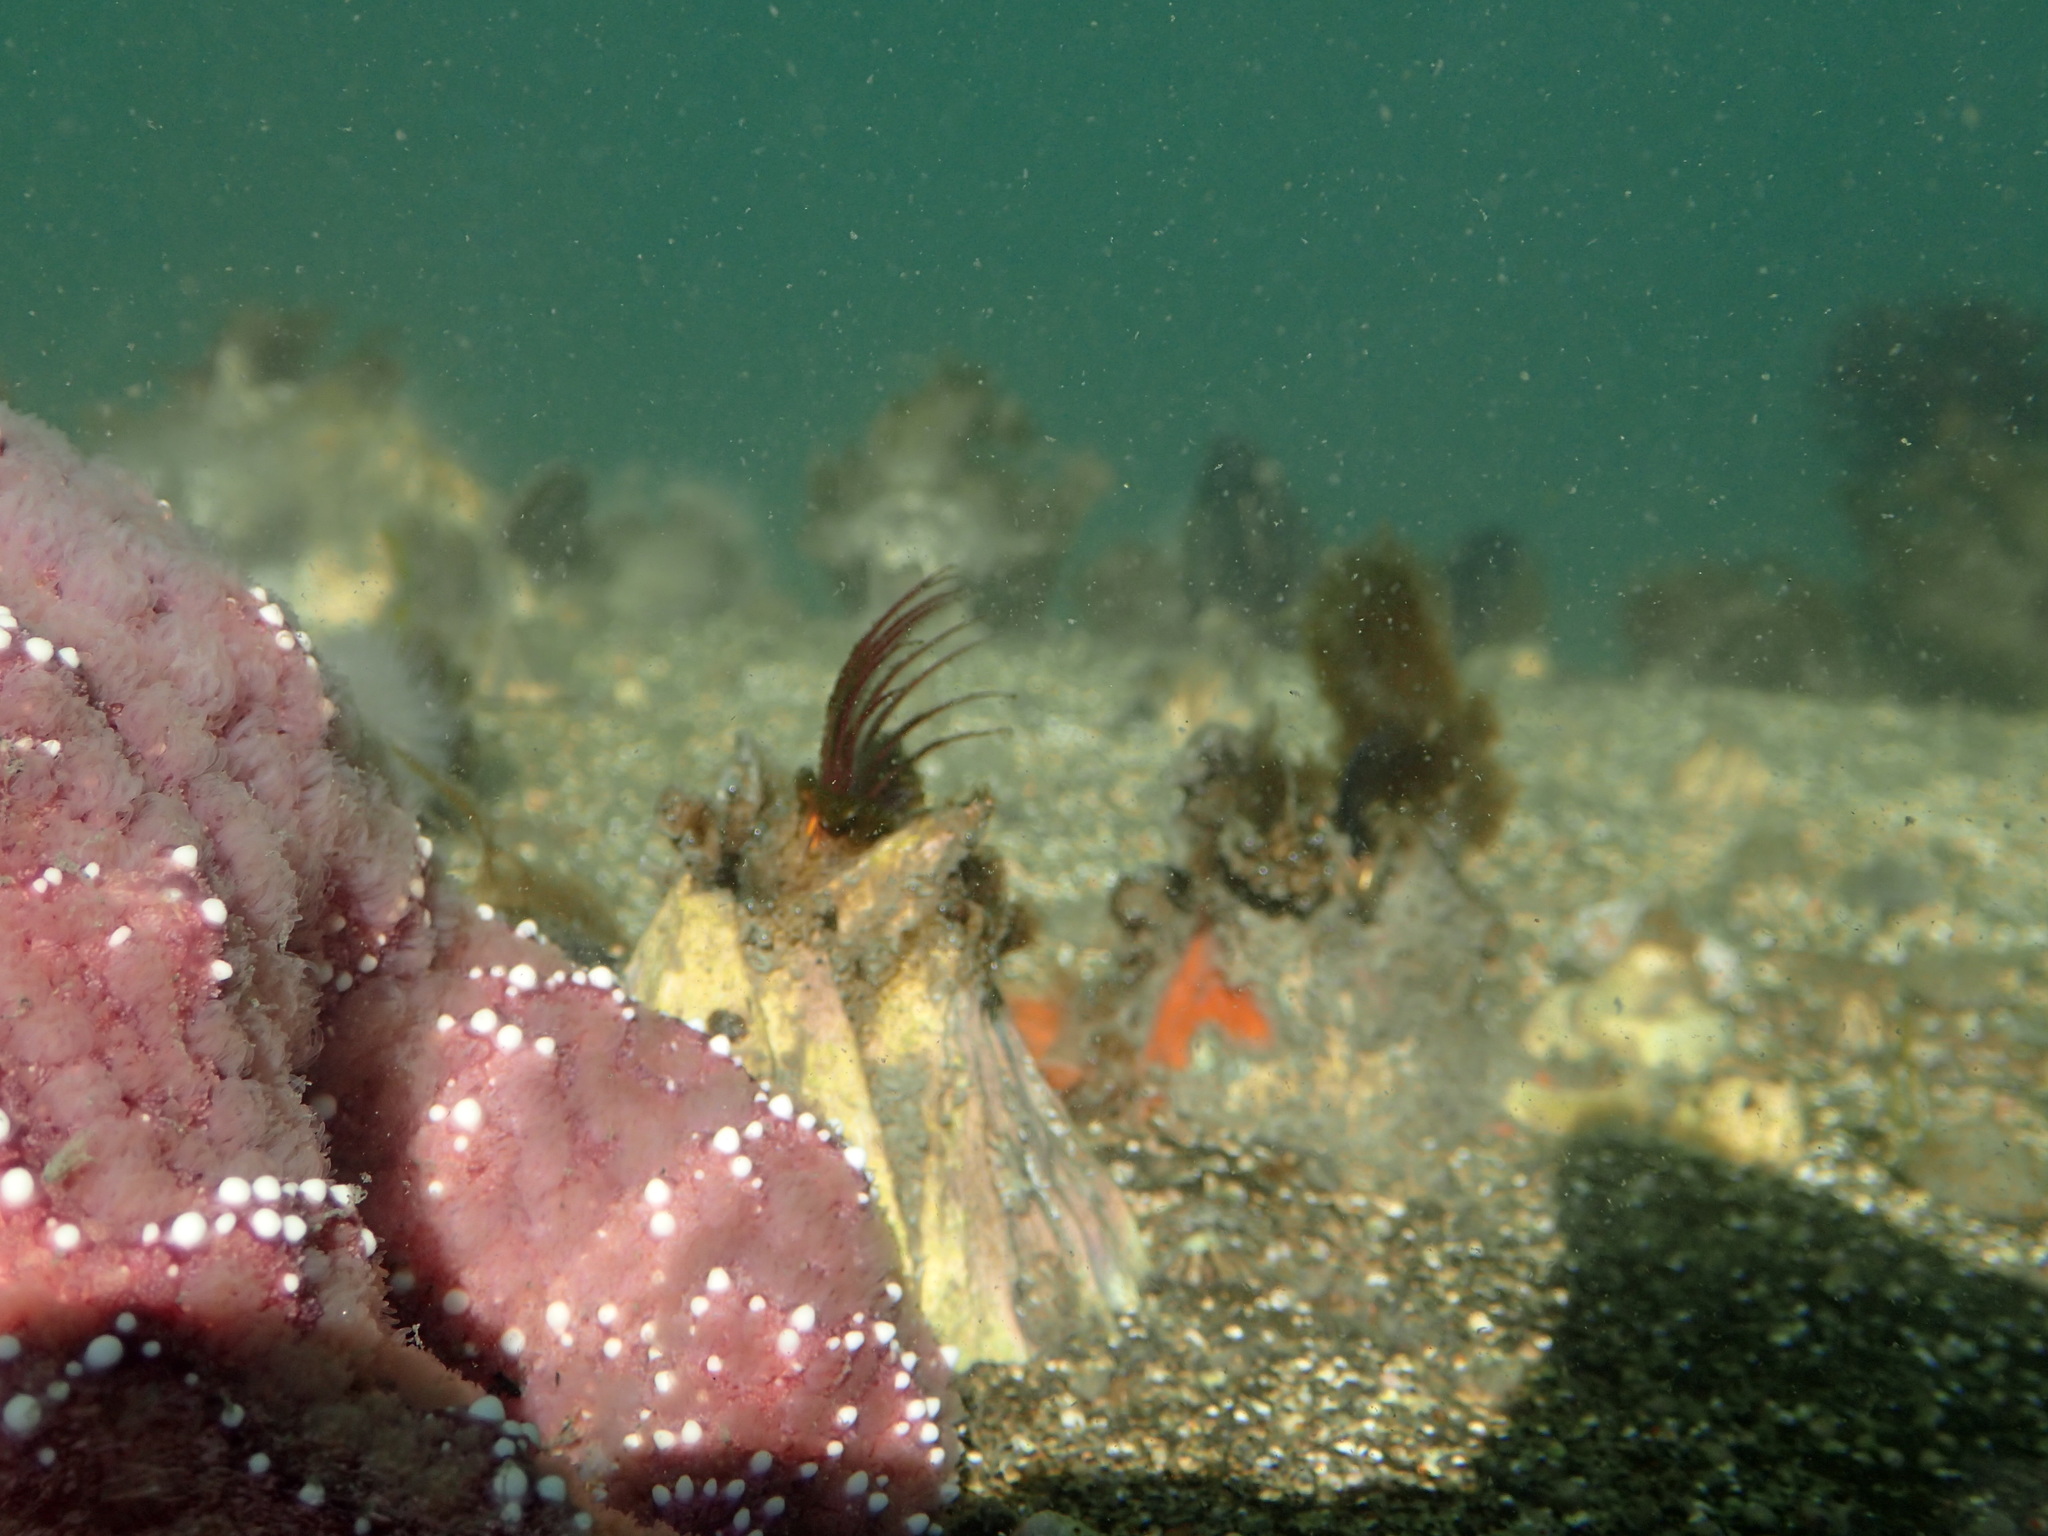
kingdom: Animalia
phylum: Arthropoda
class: Maxillopoda
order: Sessilia
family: Balanidae
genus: Balanus
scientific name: Balanus nubilus
